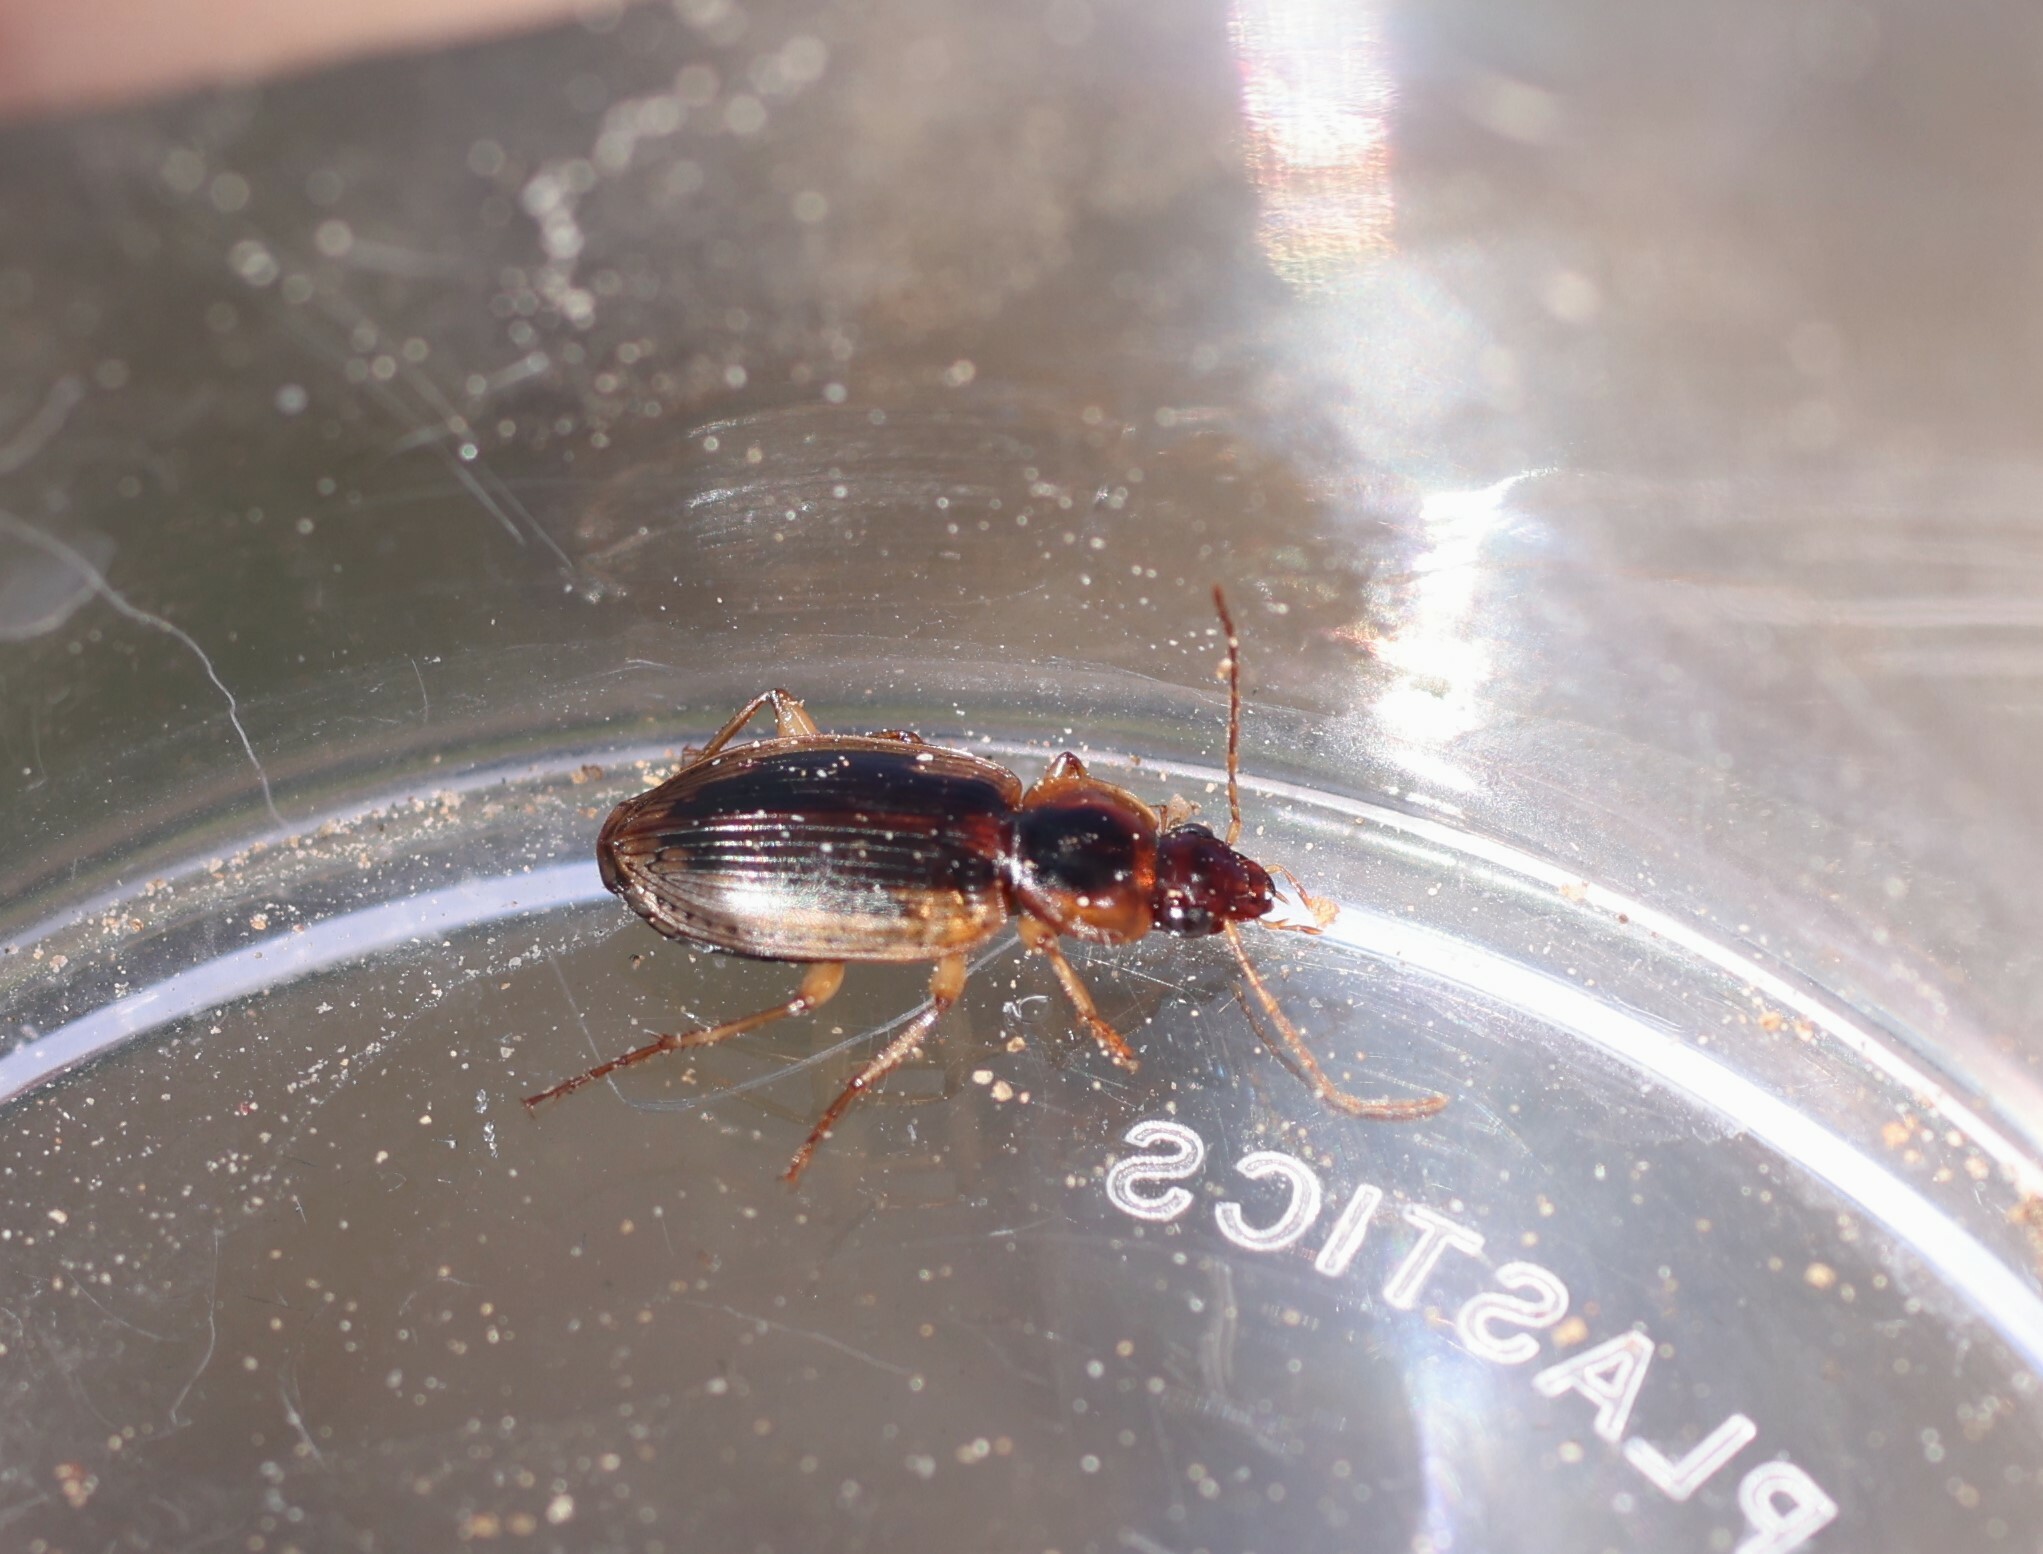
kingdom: Animalia
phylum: Arthropoda
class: Insecta
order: Coleoptera
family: Carabidae
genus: Tanystoma
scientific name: Tanystoma maculicolle
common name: Tule beetle
